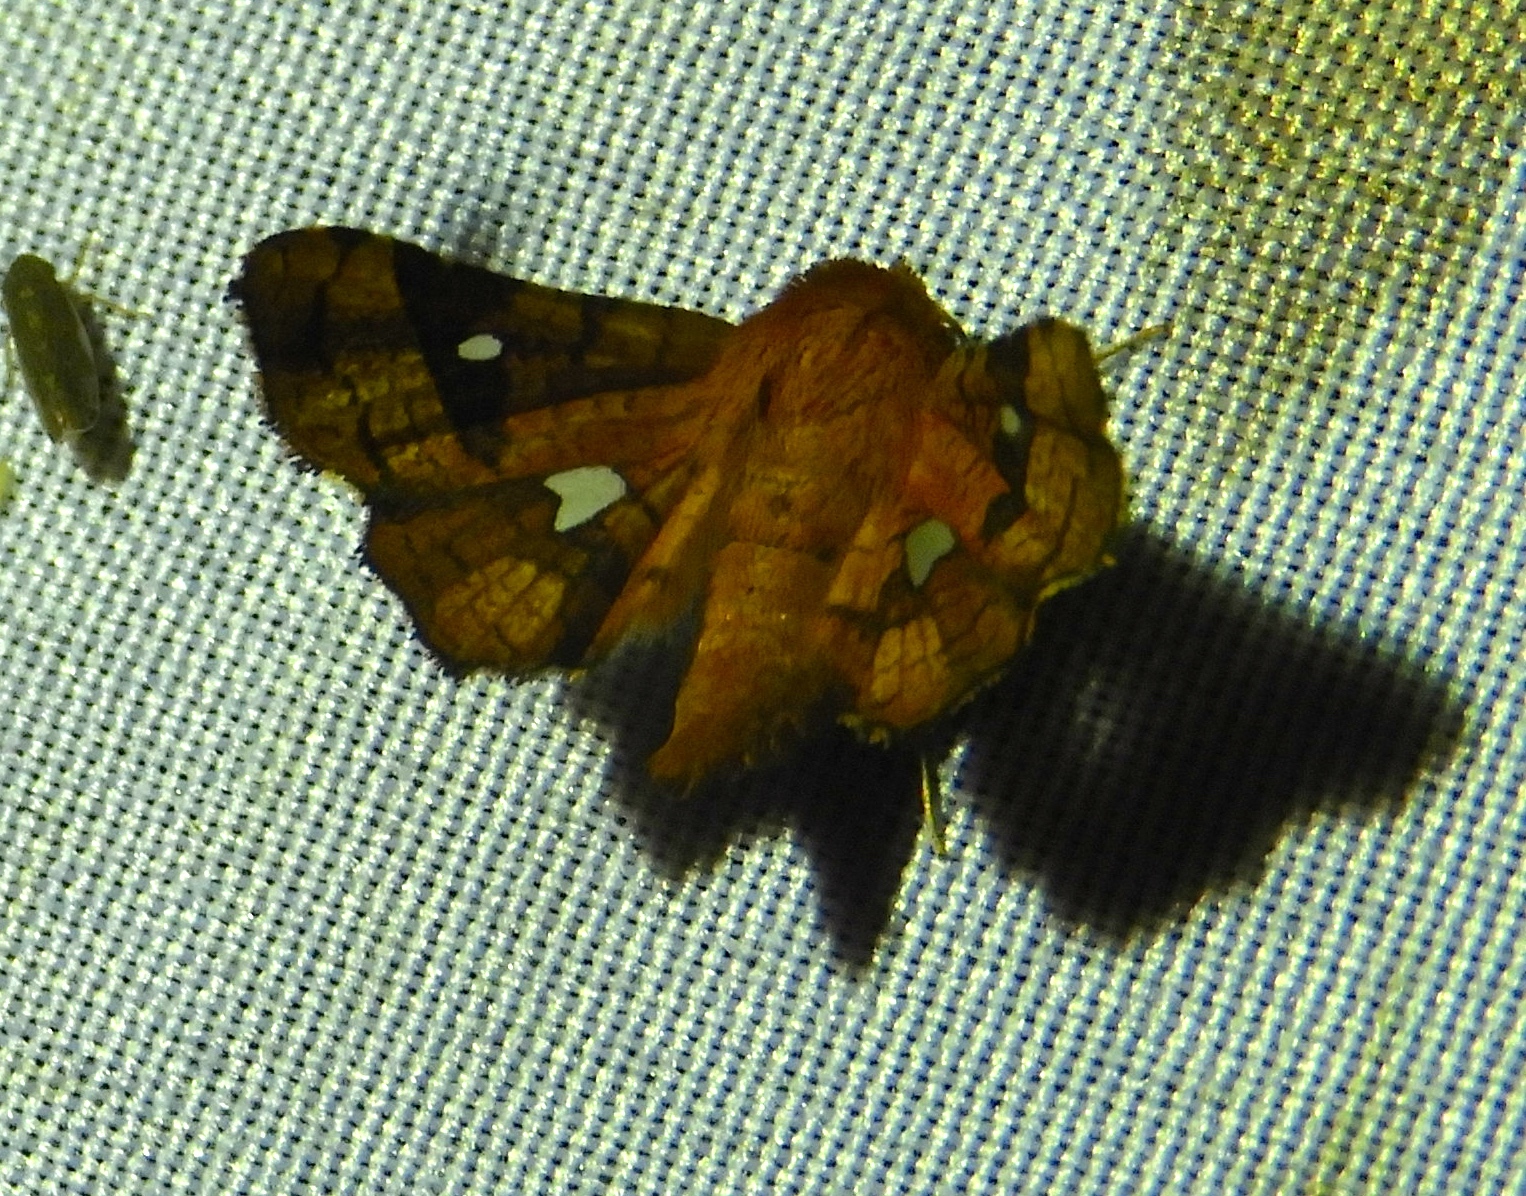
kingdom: Animalia
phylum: Arthropoda
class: Insecta
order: Lepidoptera
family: Thyrididae
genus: Dysodia
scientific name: Dysodia
